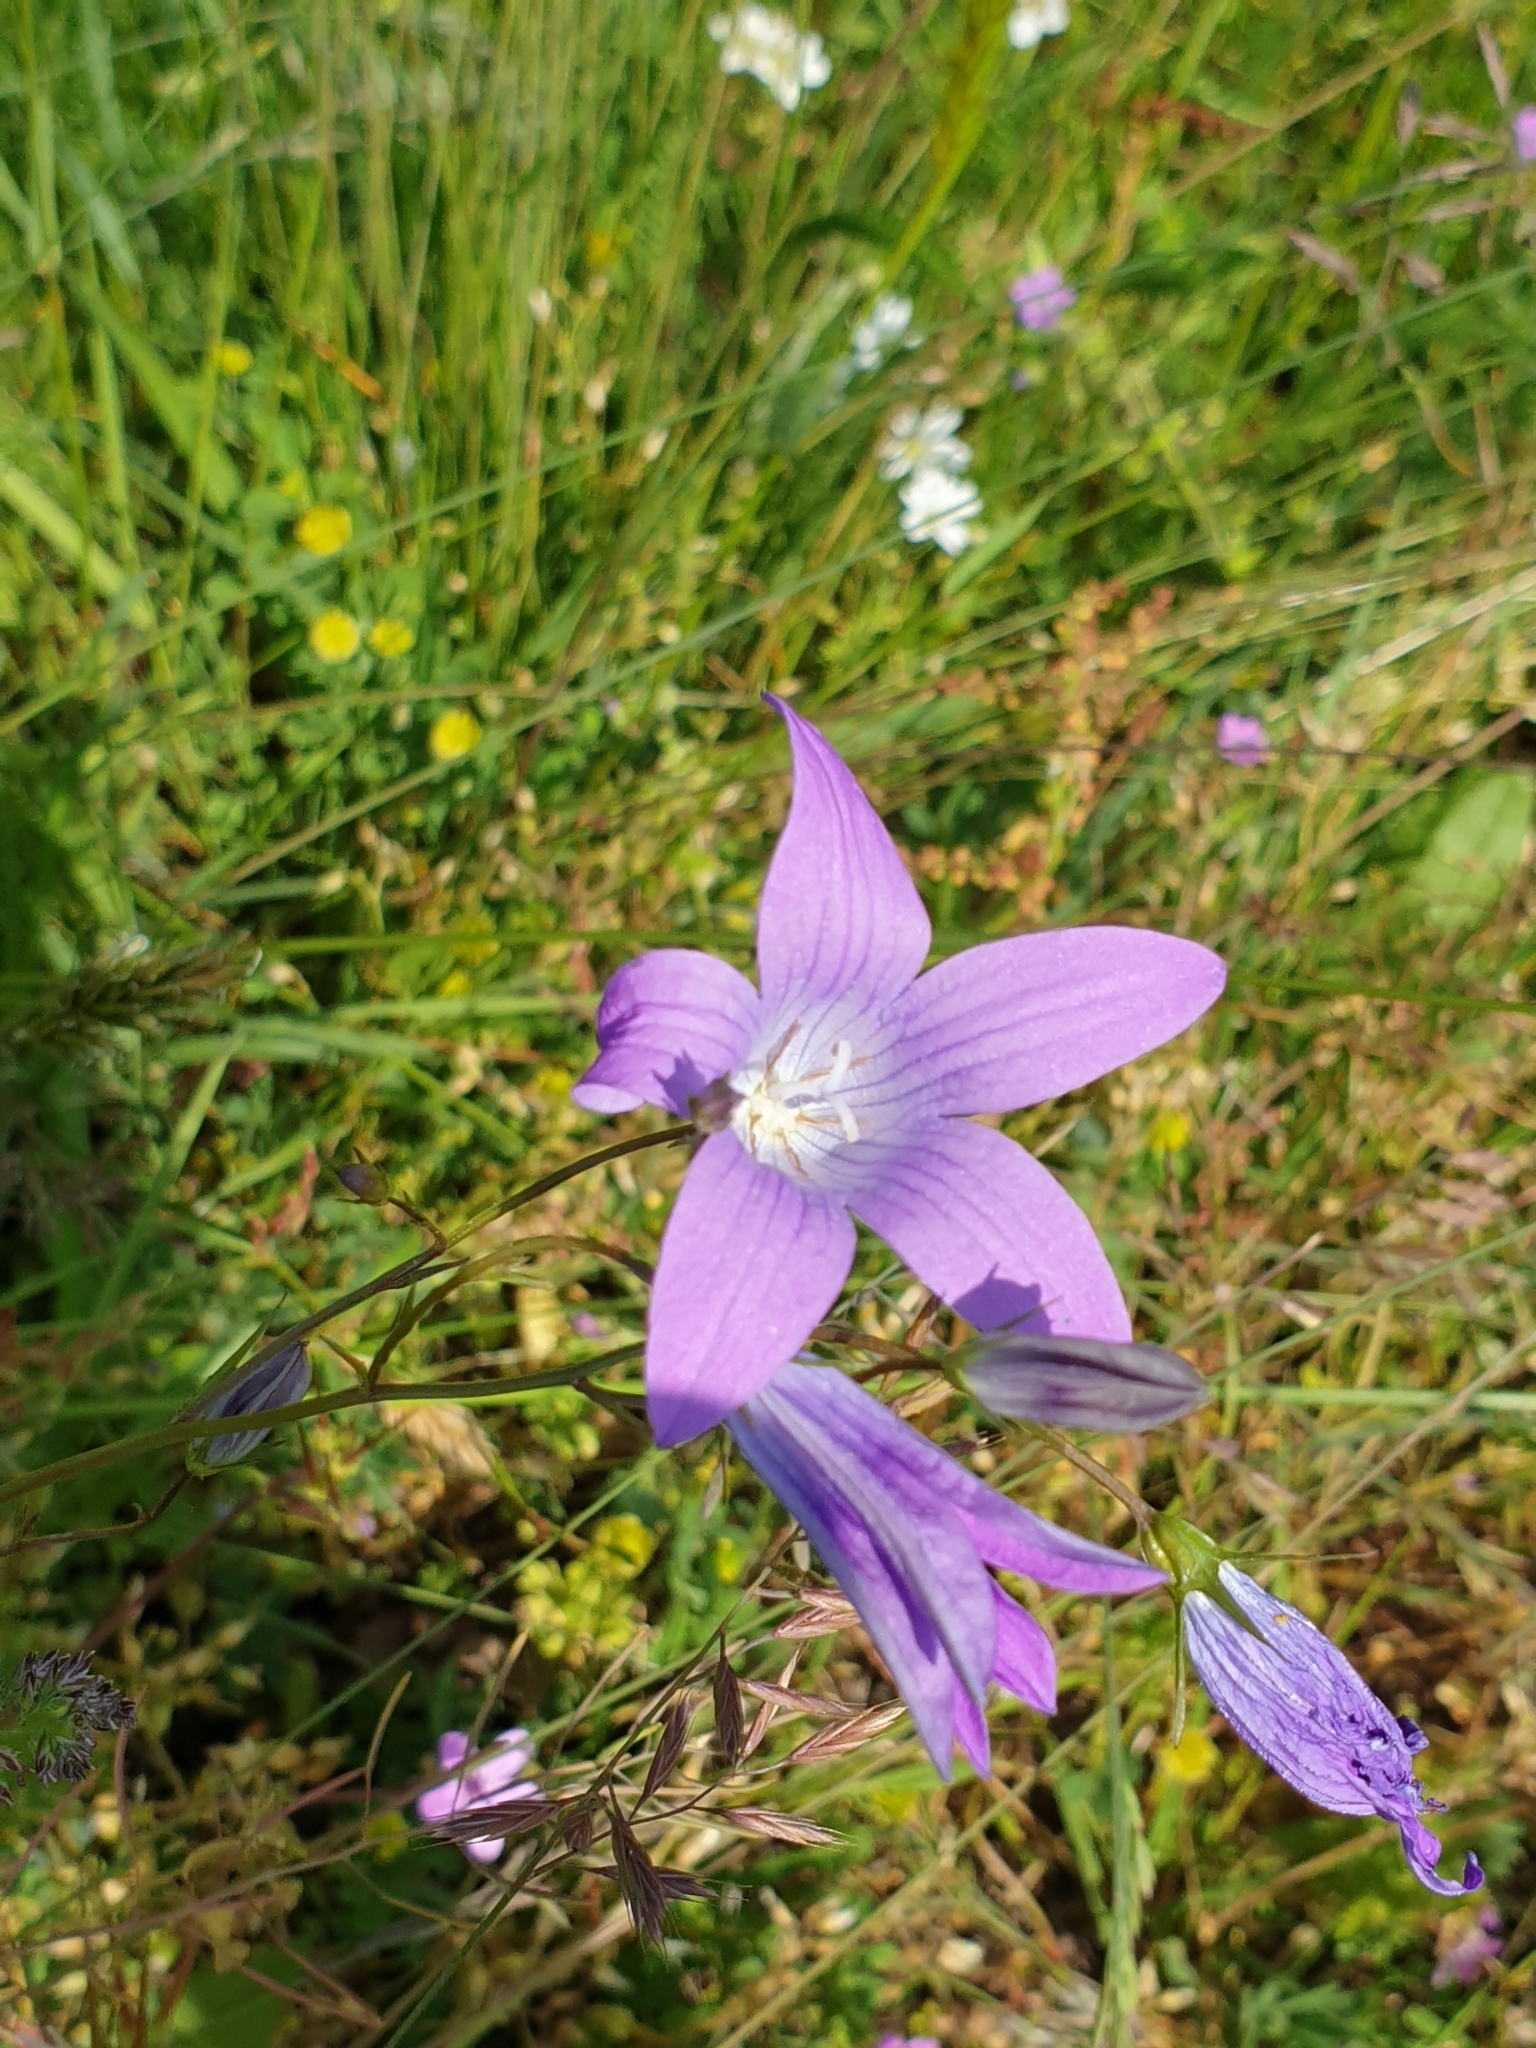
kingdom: Plantae
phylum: Tracheophyta
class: Magnoliopsida
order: Asterales
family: Campanulaceae
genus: Campanula
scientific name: Campanula patula
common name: Spreading bellflower
